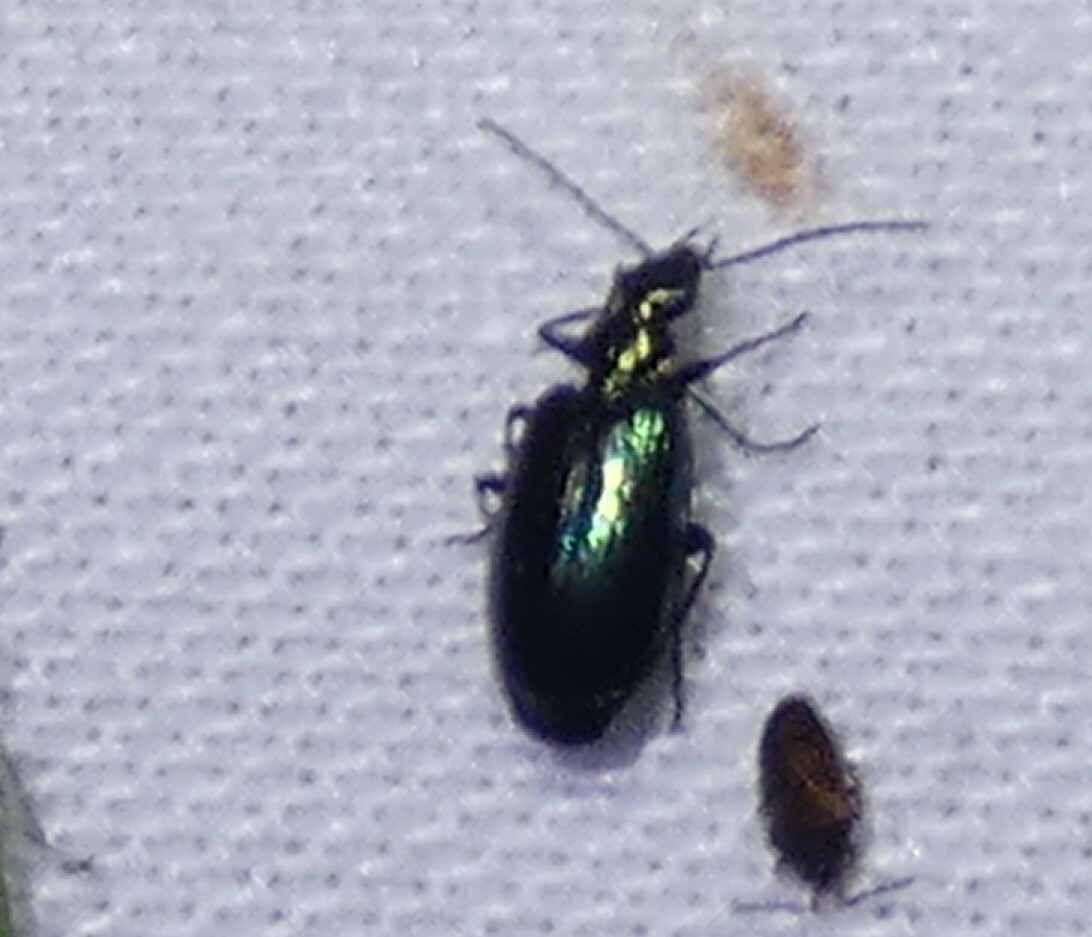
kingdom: Animalia
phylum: Arthropoda
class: Insecta
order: Coleoptera
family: Carabidae
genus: Lebia
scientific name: Lebia viridis
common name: Flower lebia beetle
